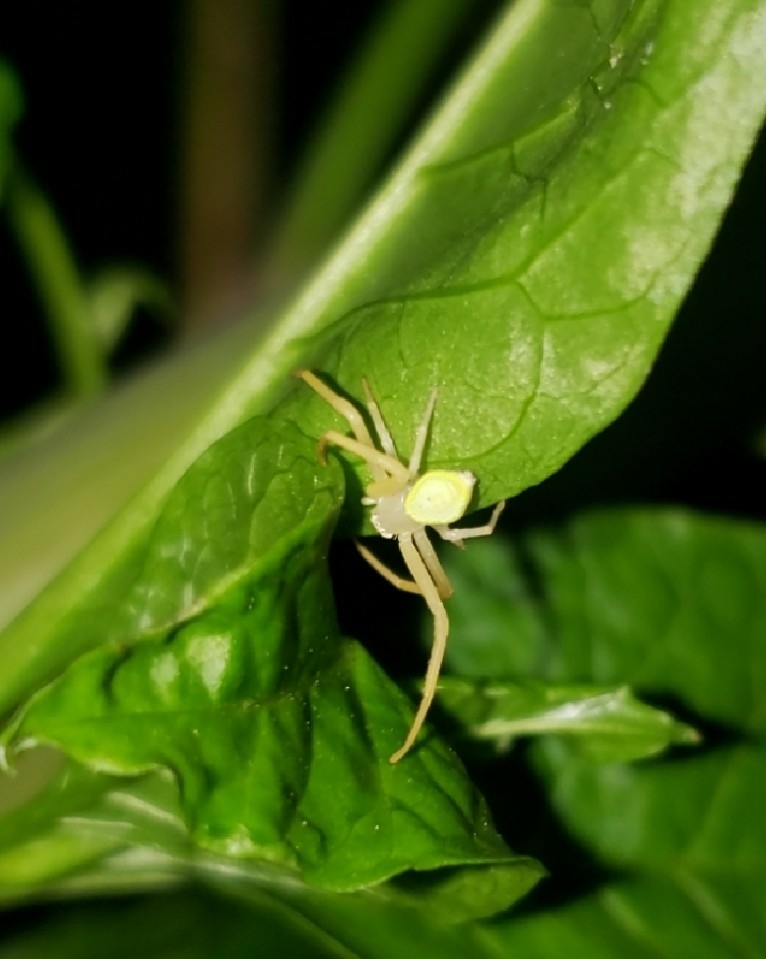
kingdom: Animalia
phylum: Arthropoda
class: Arachnida
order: Araneae
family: Thomisidae
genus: Misumessus
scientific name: Misumessus oblongus
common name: American green crab spider
